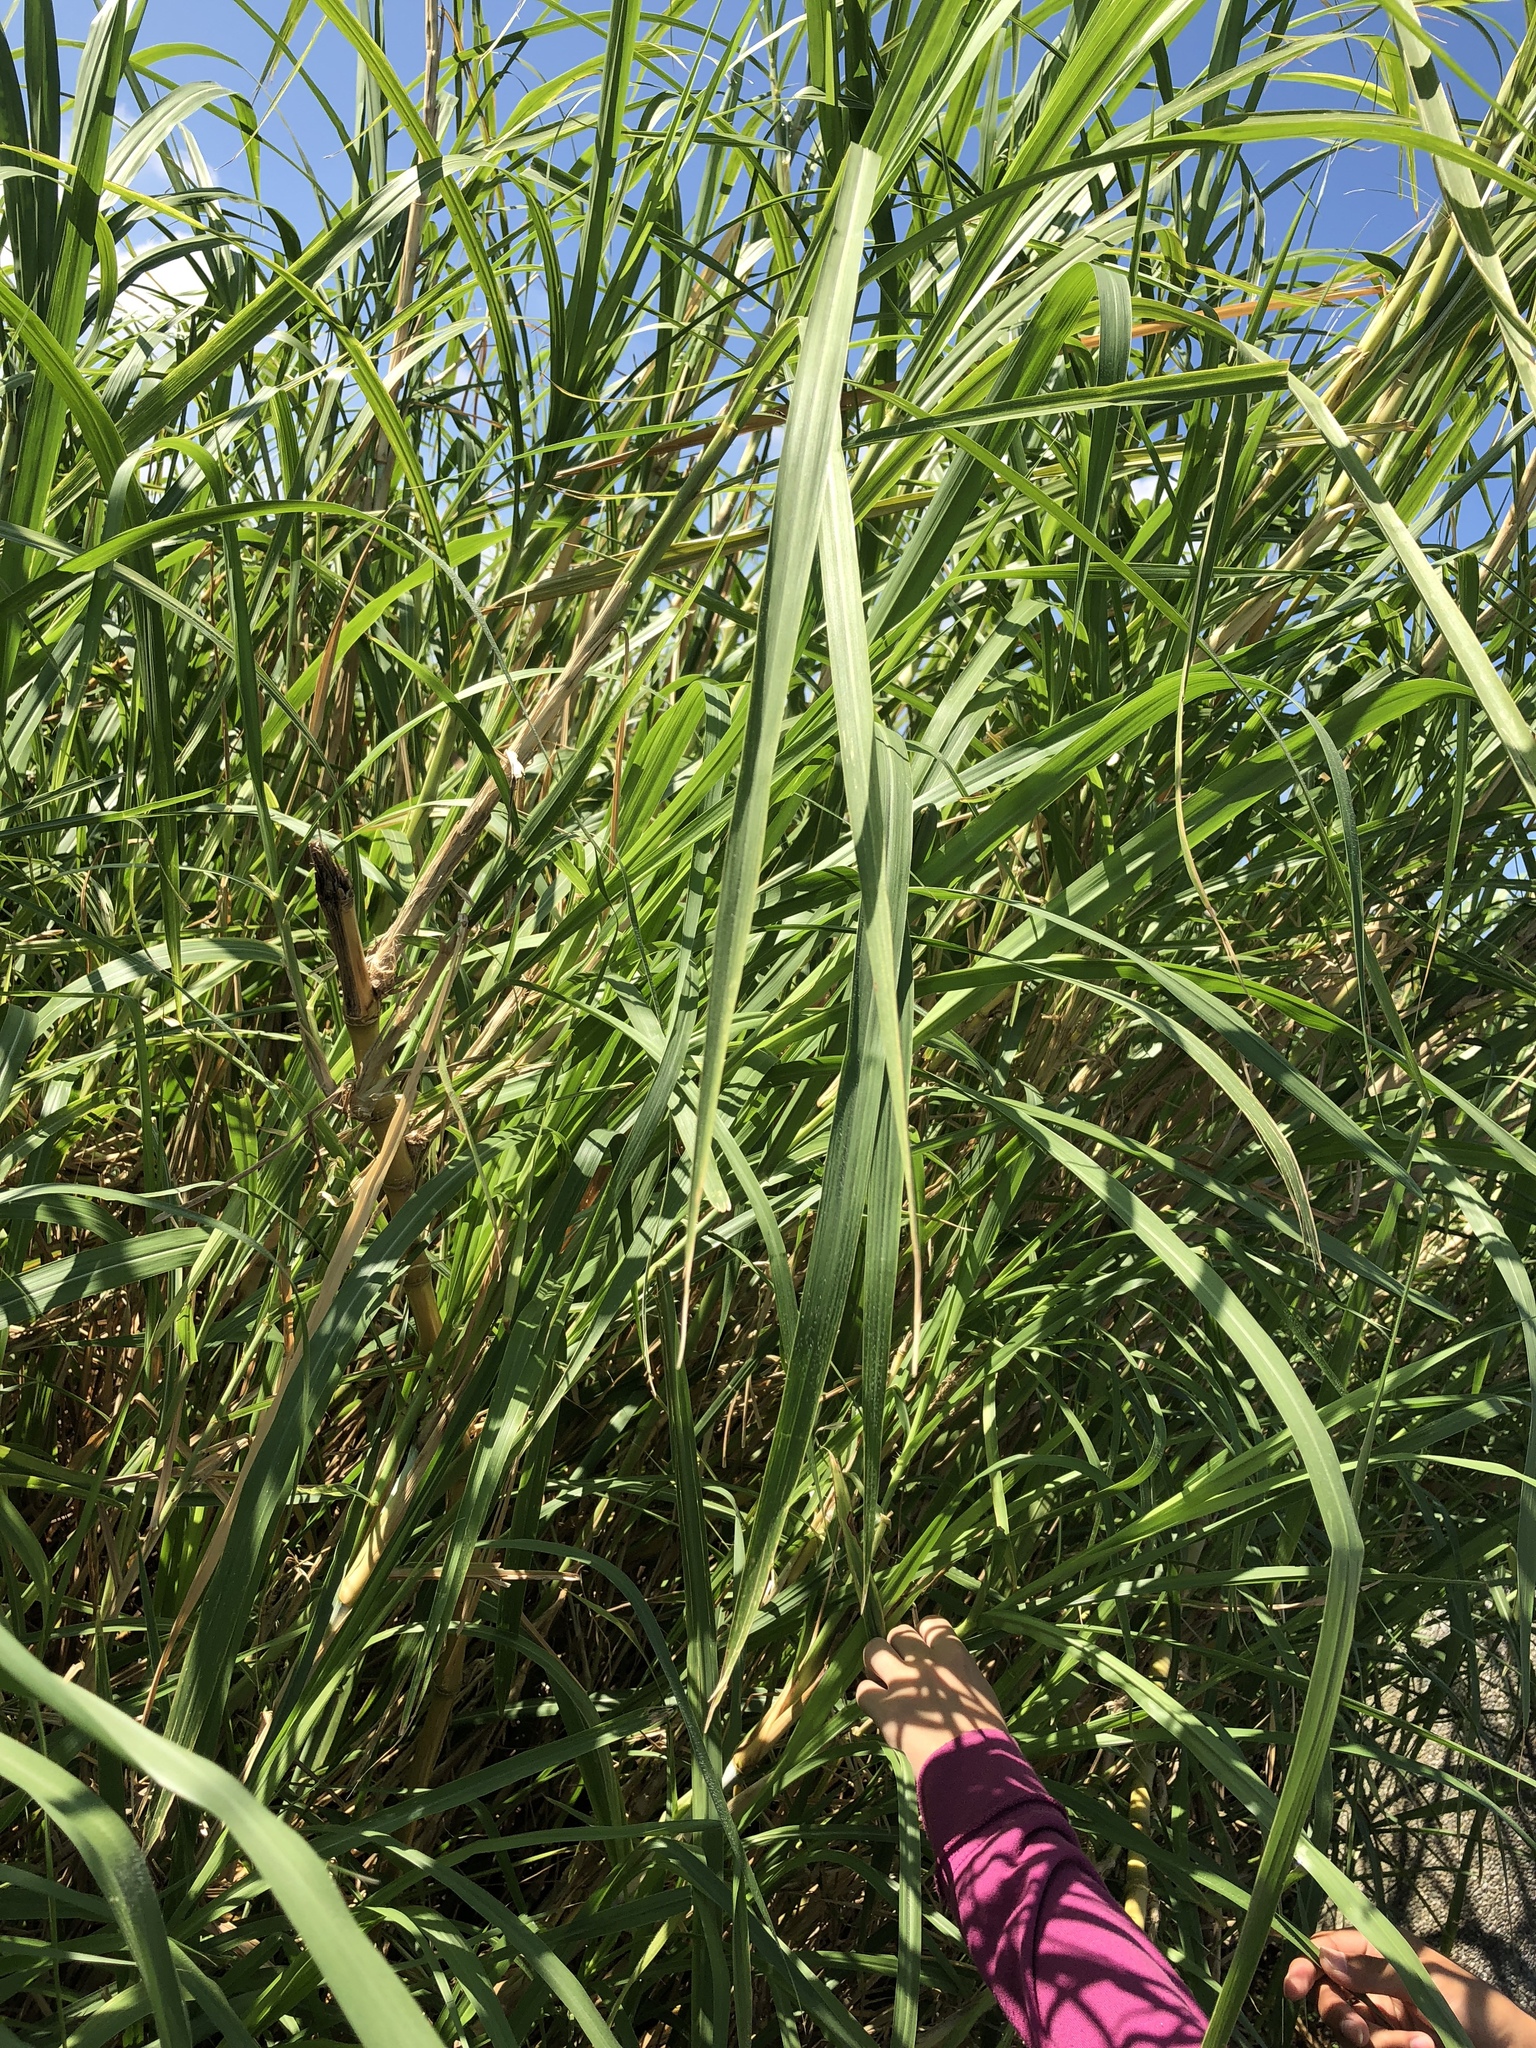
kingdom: Plantae
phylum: Tracheophyta
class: Liliopsida
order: Poales
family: Poaceae
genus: Cenchrus
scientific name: Cenchrus purpureus
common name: Elephant grass
